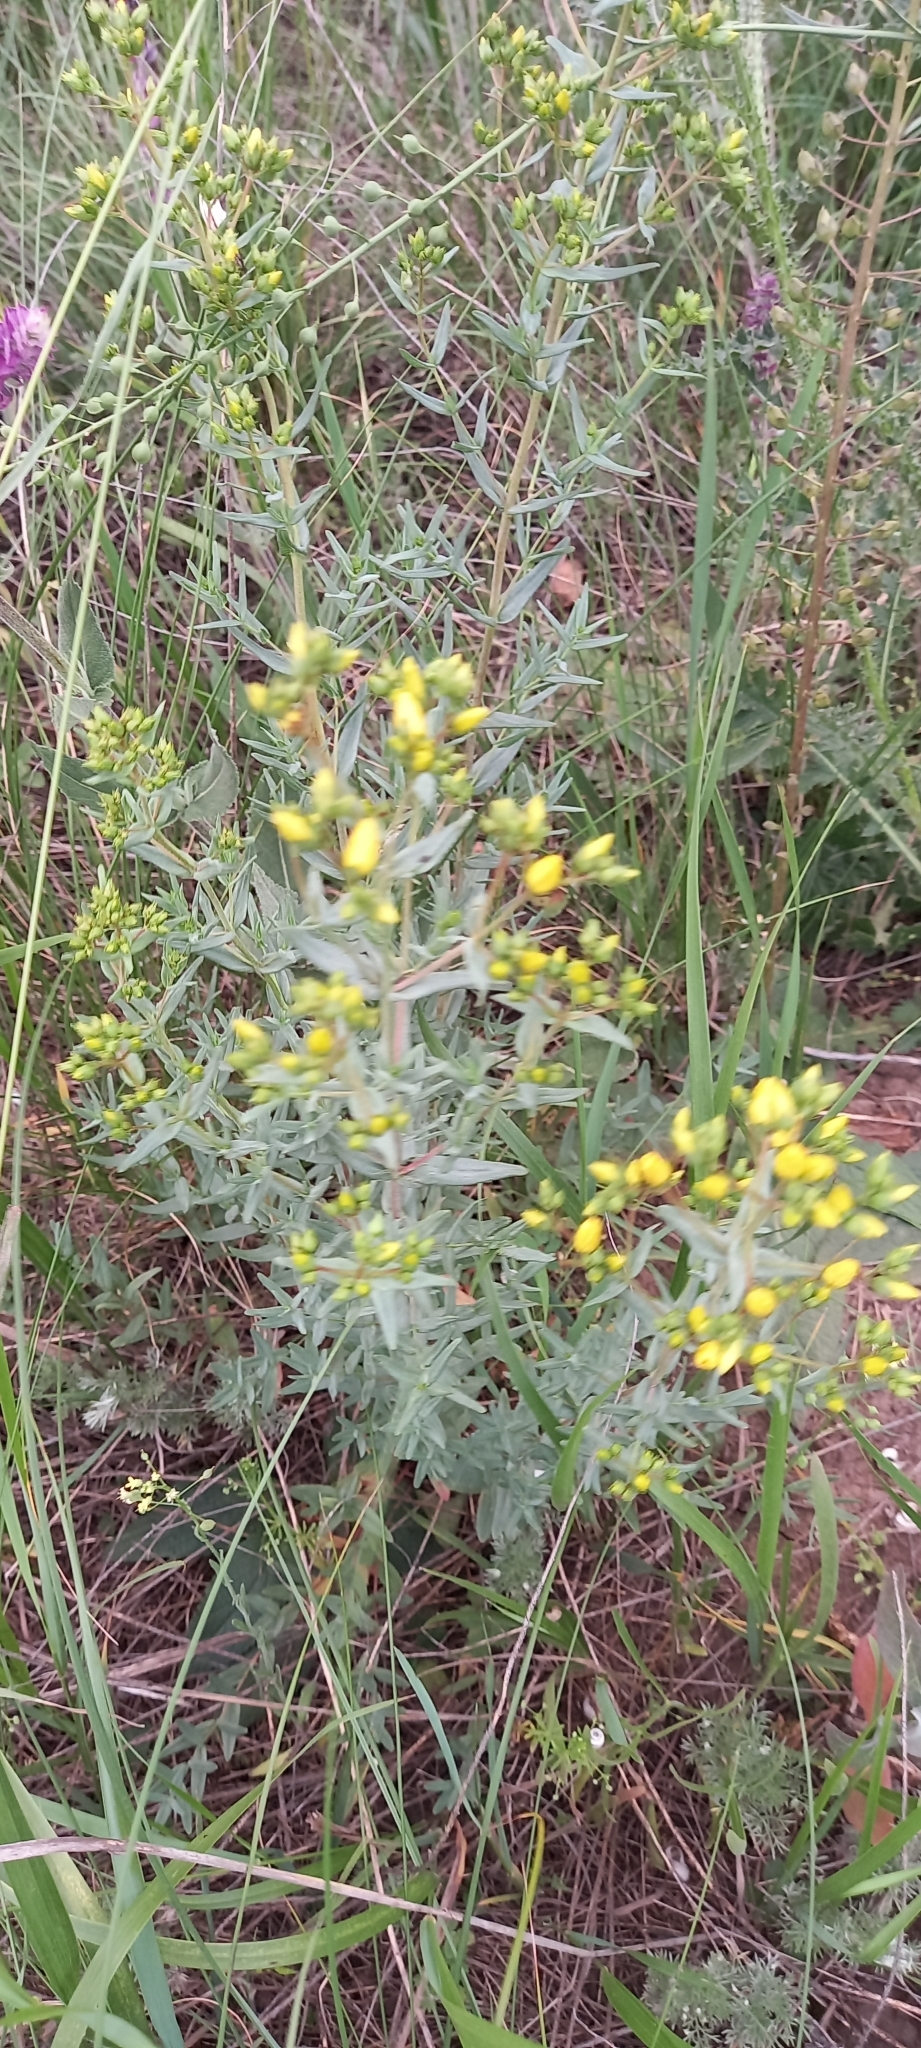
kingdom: Plantae
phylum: Tracheophyta
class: Magnoliopsida
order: Malpighiales
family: Hypericaceae
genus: Hypericum
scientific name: Hypericum elegans
